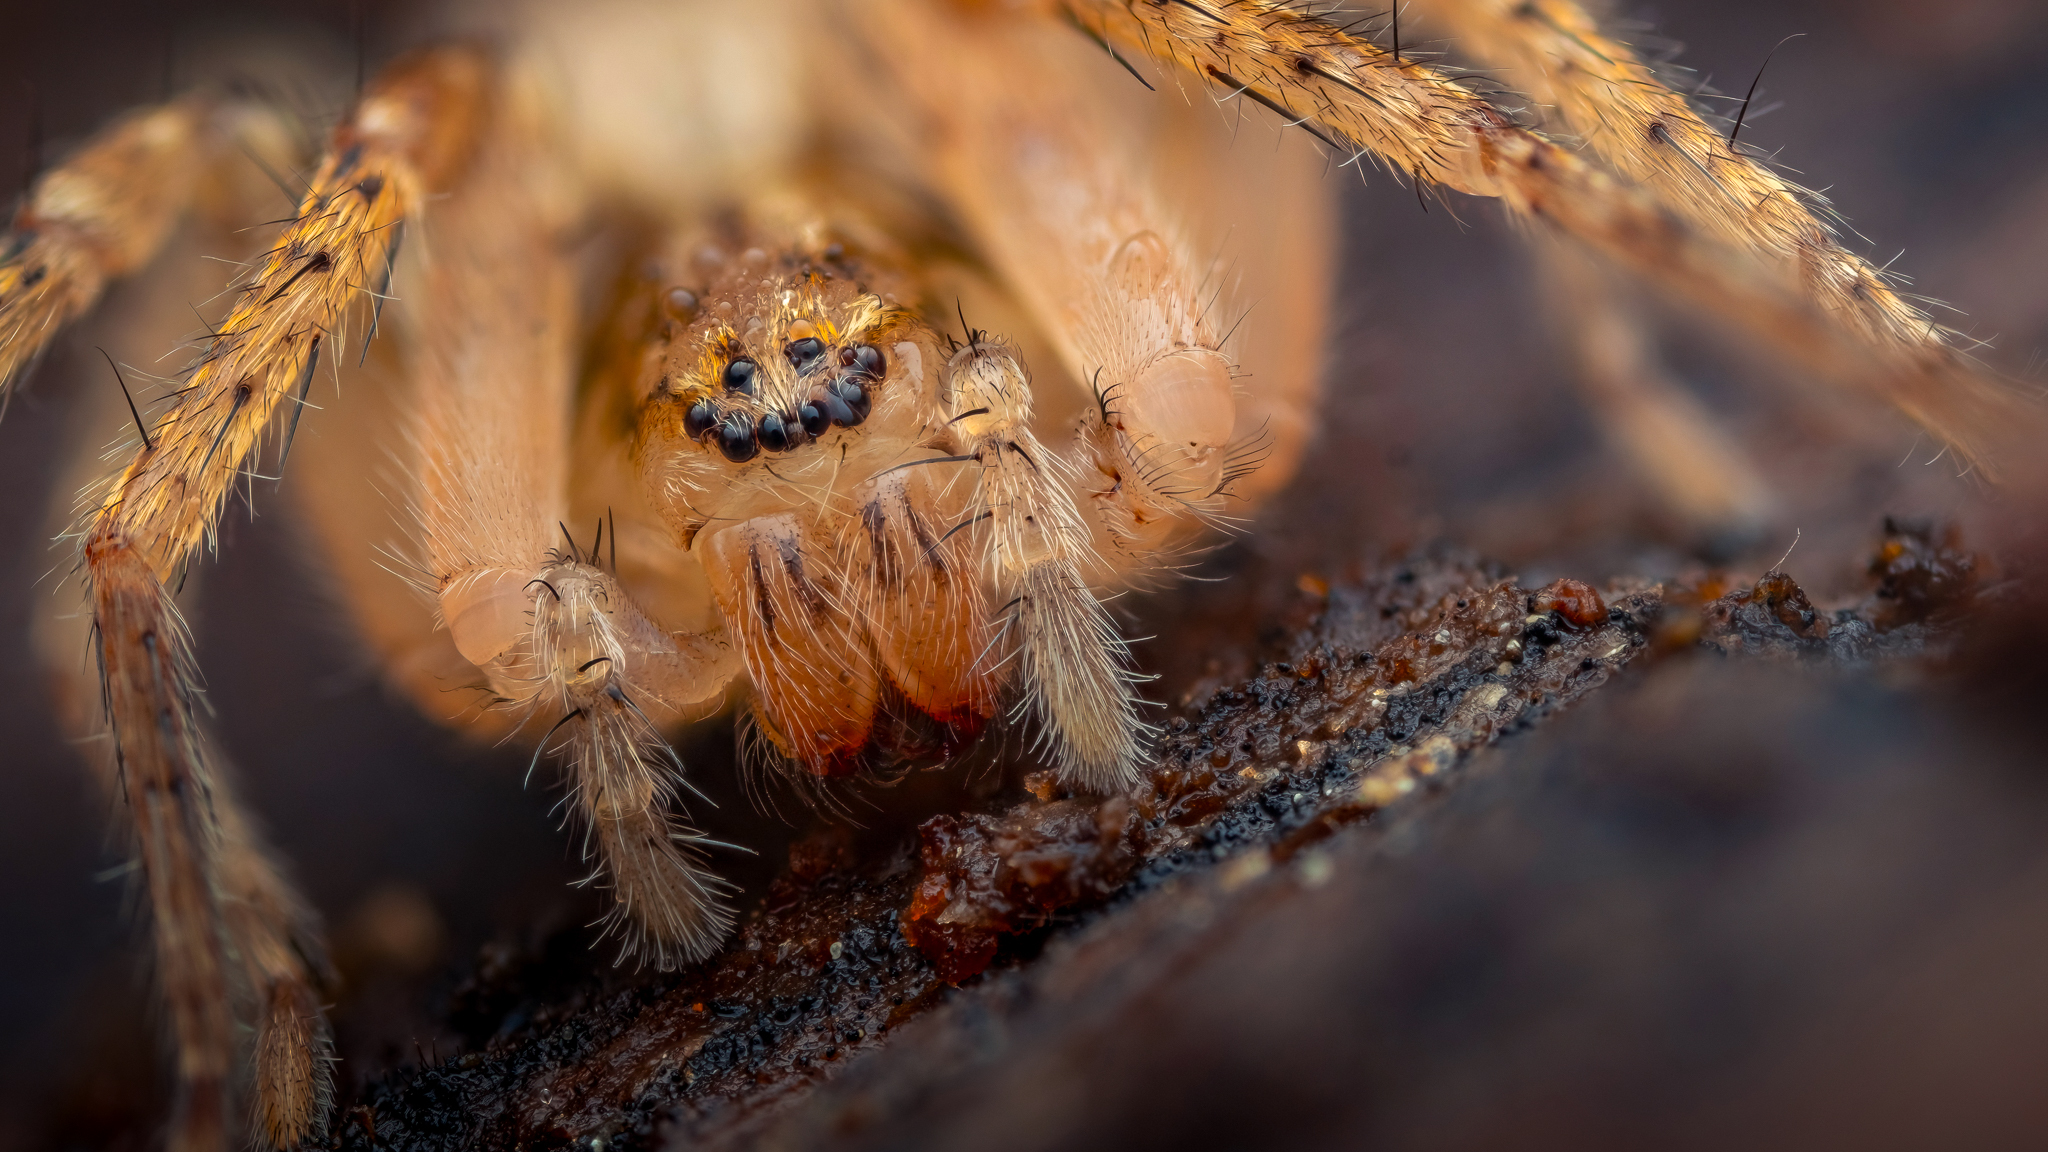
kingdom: Animalia
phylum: Arthropoda
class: Arachnida
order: Araneae
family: Anyphaenidae
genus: Anyphaena
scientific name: Anyphaena accentuata
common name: Buzzing spider
